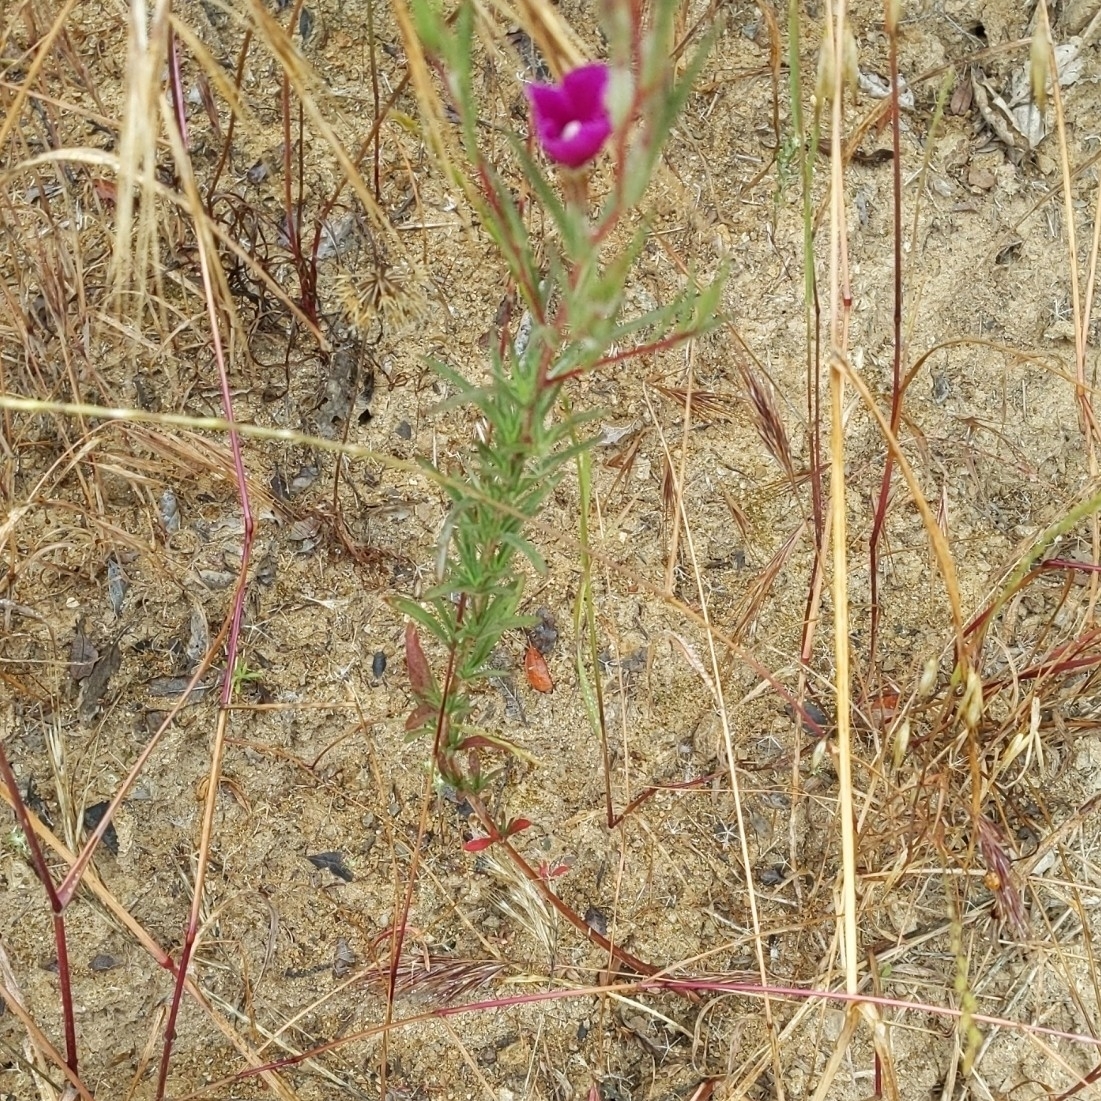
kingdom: Plantae
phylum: Tracheophyta
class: Magnoliopsida
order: Myrtales
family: Onagraceae
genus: Clarkia
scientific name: Clarkia purpurea
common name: Purple clarkia
